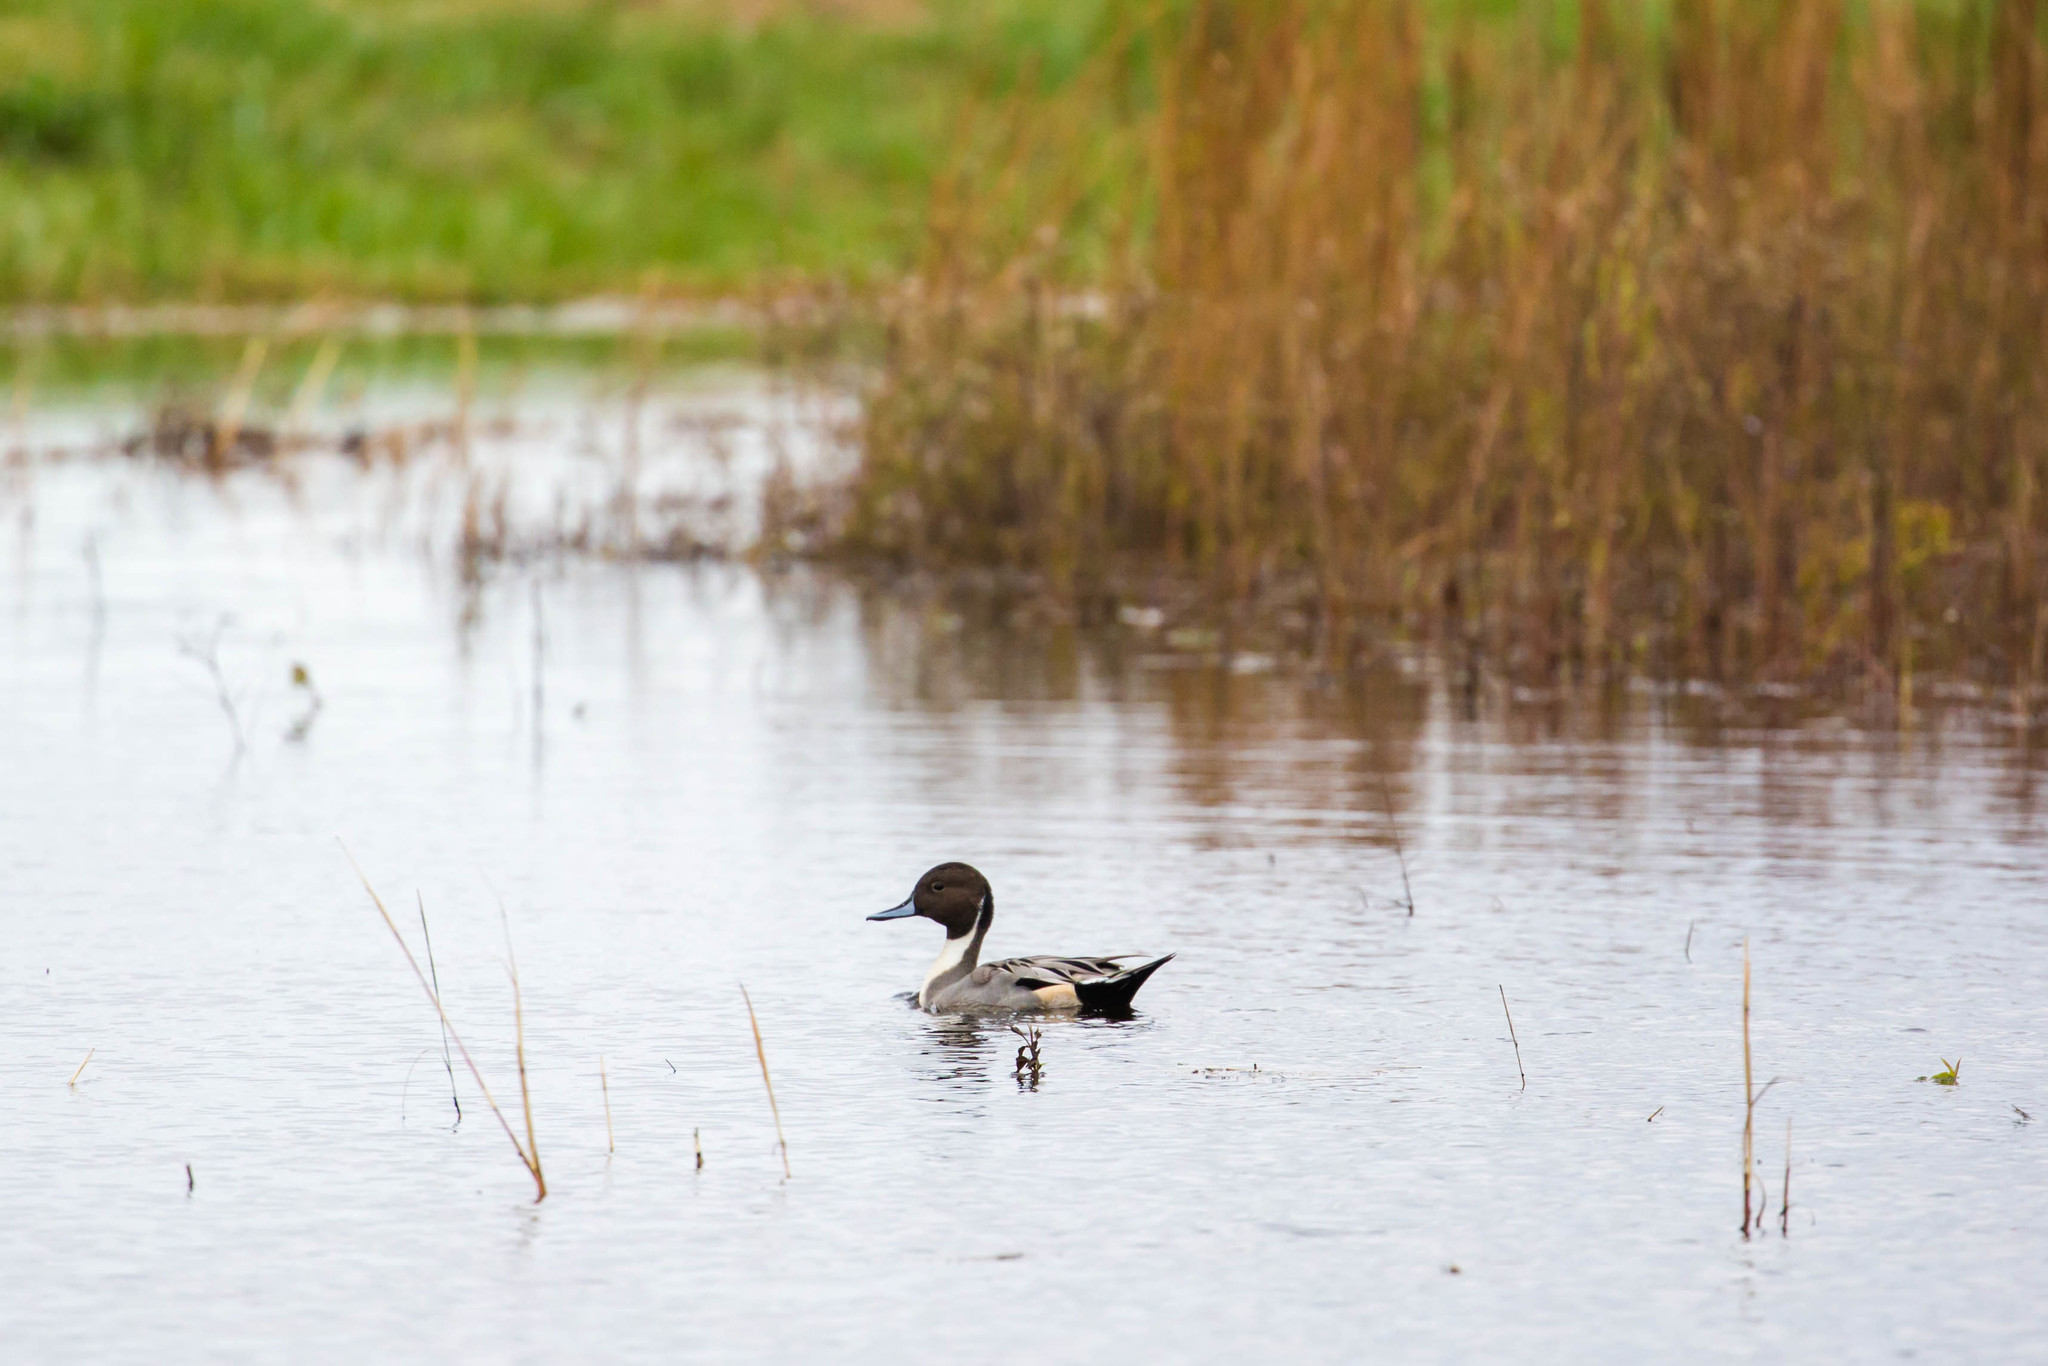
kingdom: Animalia
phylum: Chordata
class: Aves
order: Anseriformes
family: Anatidae
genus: Anas
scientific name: Anas acuta
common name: Northern pintail
